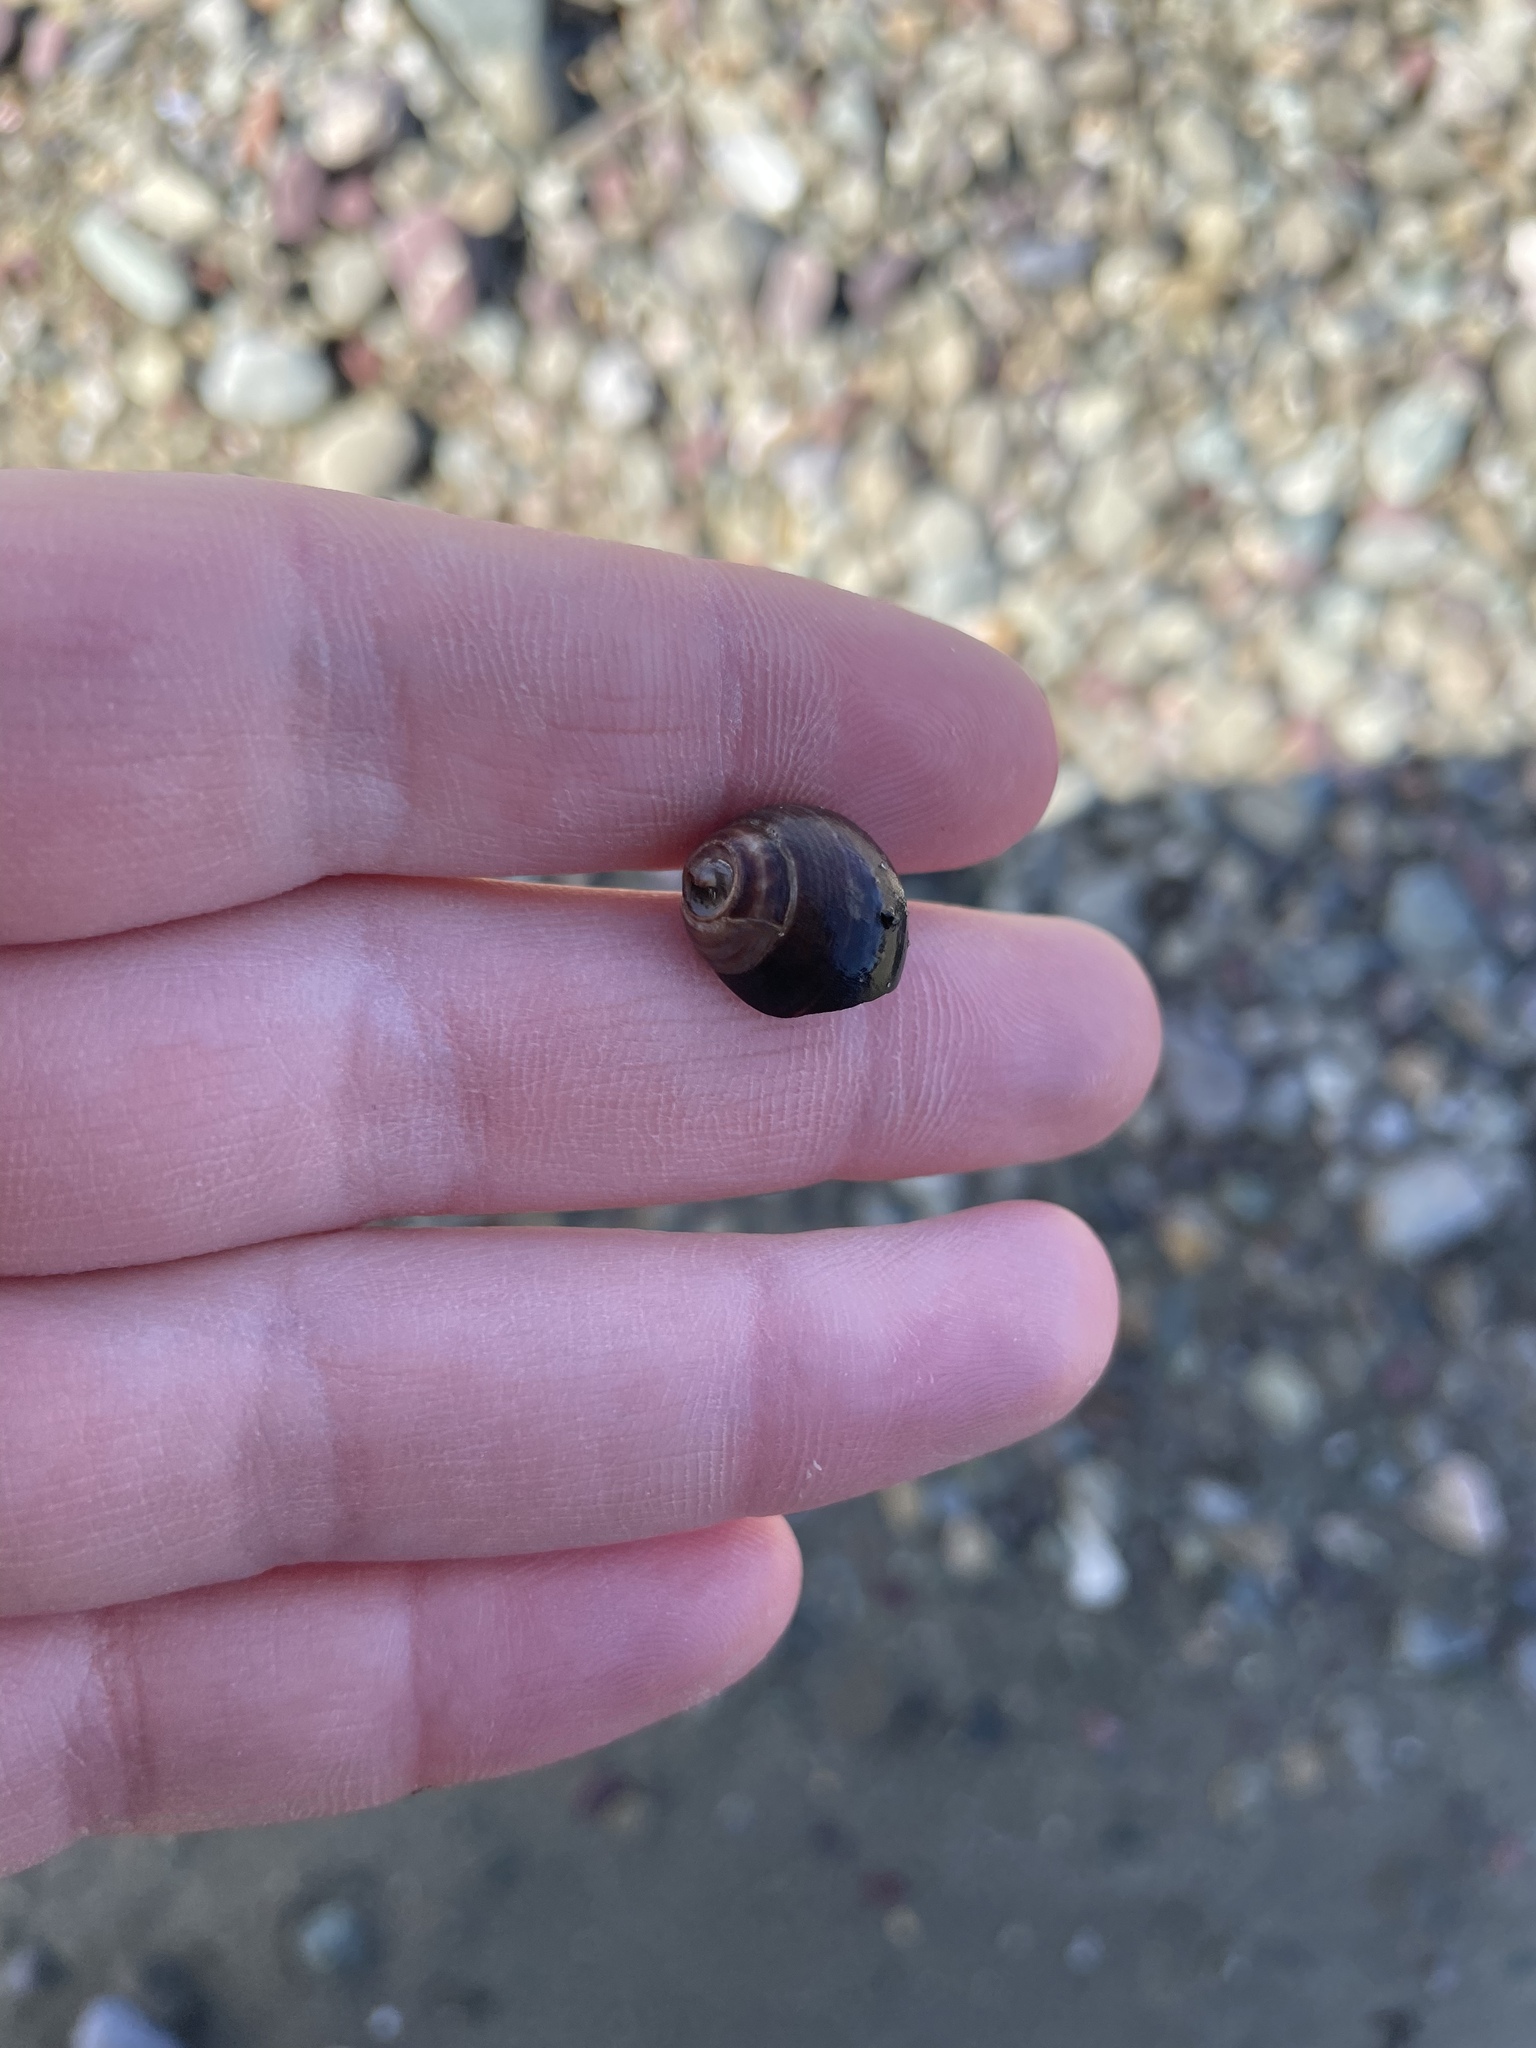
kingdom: Animalia
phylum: Mollusca
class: Gastropoda
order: Littorinimorpha
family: Littorinidae
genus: Littorina
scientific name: Littorina littorea
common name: Common periwinkle
